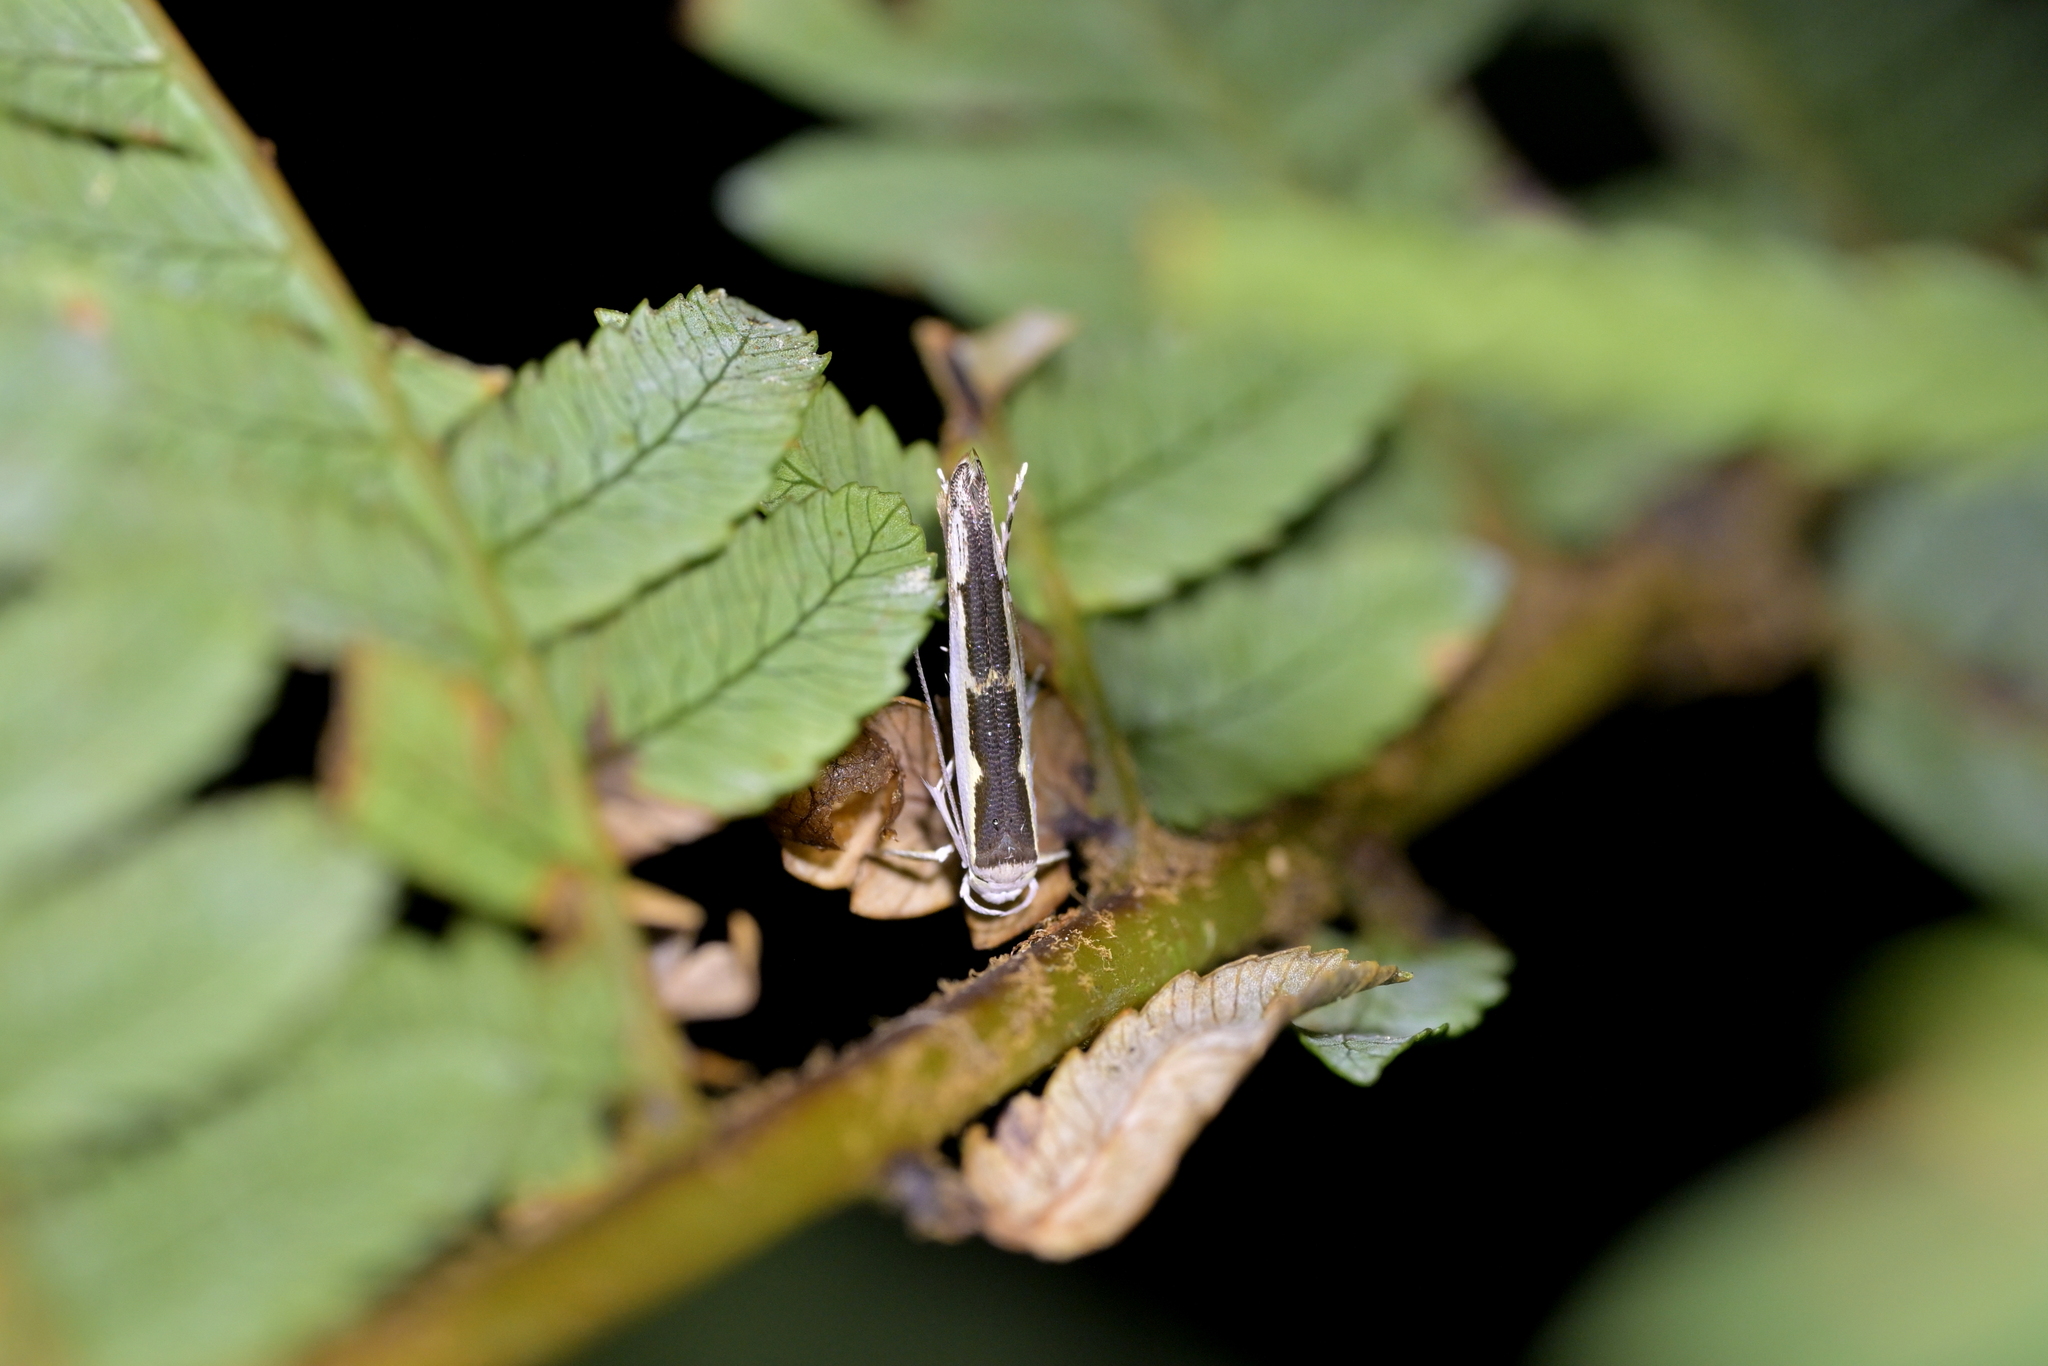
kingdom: Animalia
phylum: Arthropoda
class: Insecta
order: Lepidoptera
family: Roeslerstammiidae
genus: Vanicela
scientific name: Vanicela disjunctella
